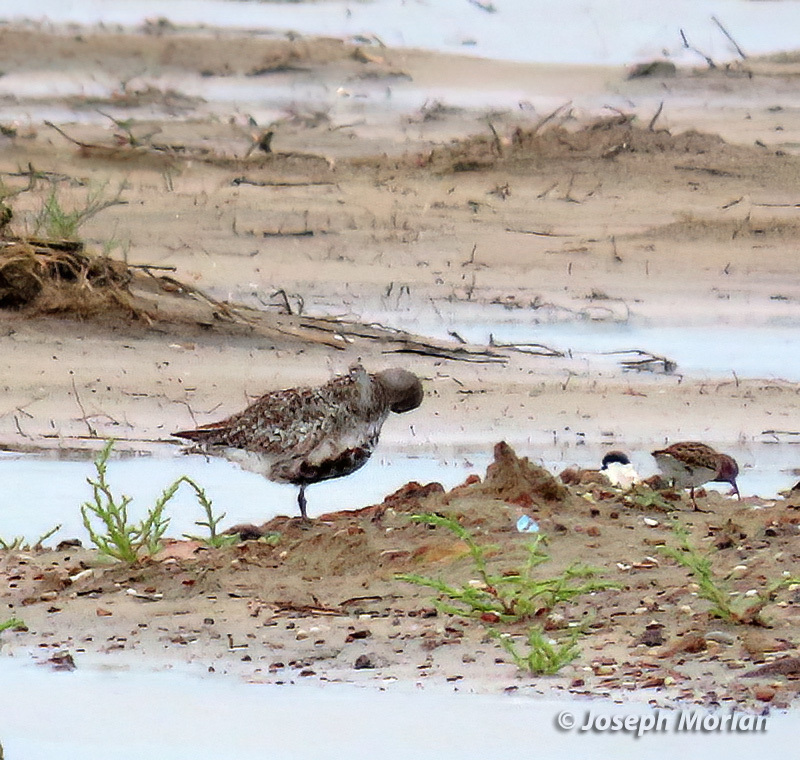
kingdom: Animalia
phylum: Chordata
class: Aves
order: Charadriiformes
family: Charadriidae
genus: Pluvialis
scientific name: Pluvialis squatarola
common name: Grey plover
